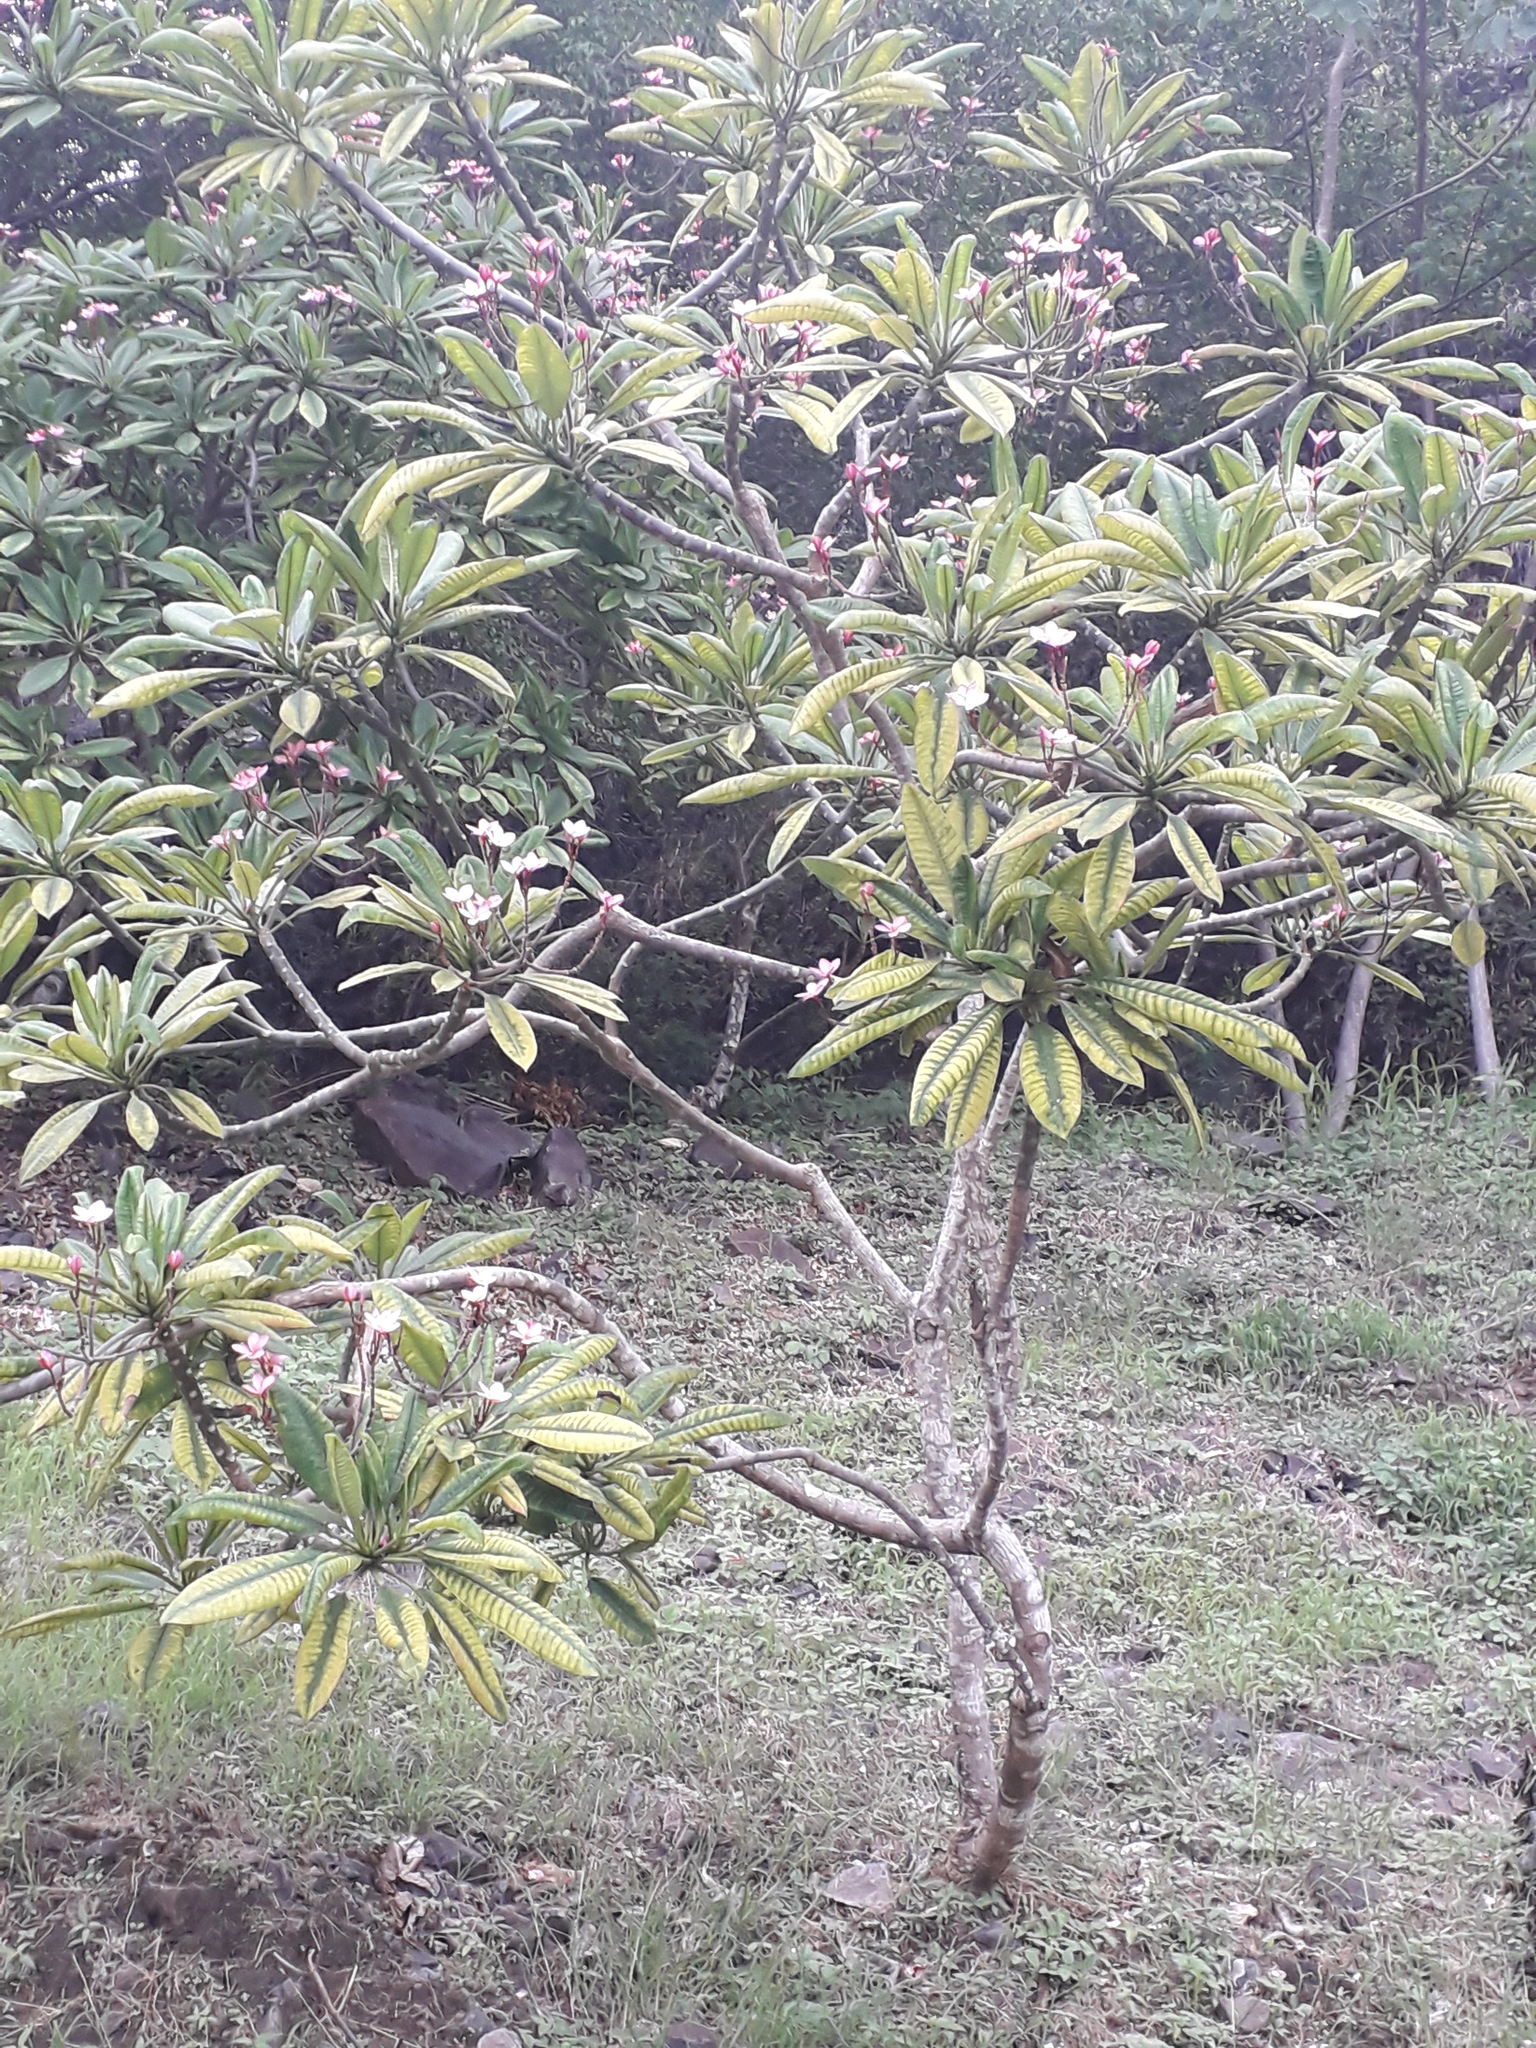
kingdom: Plantae
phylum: Tracheophyta
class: Magnoliopsida
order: Gentianales
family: Apocynaceae
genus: Plumeria
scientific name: Plumeria rubra
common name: Pagoda-tree
